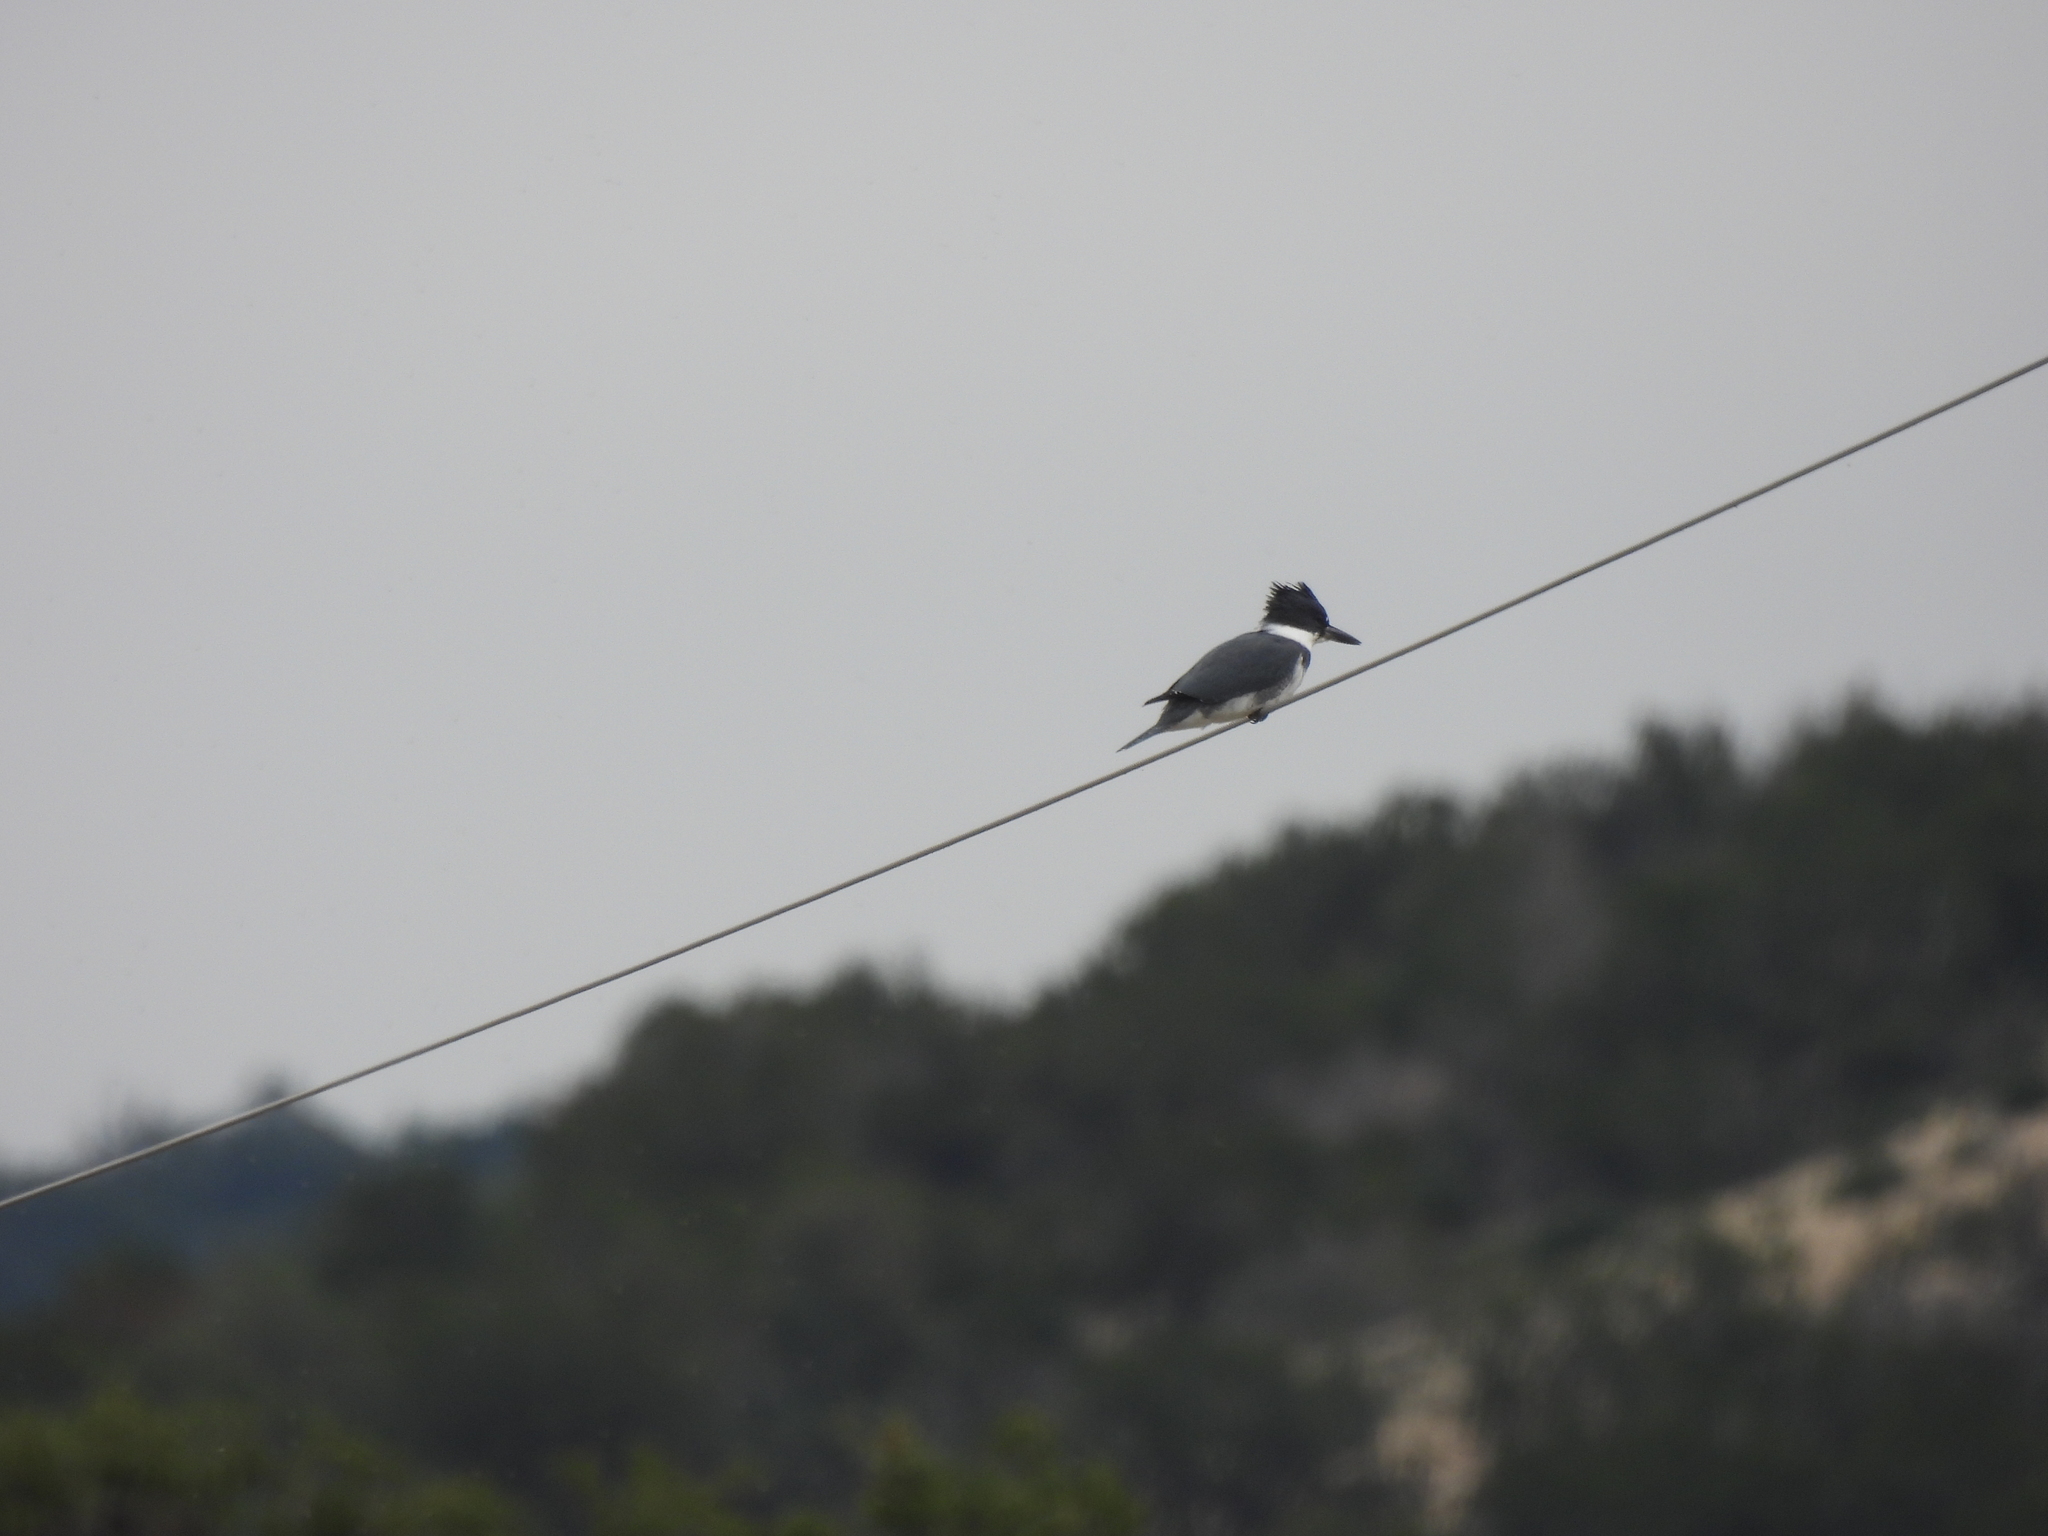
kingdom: Animalia
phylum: Chordata
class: Aves
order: Coraciiformes
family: Alcedinidae
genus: Megaceryle
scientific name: Megaceryle alcyon
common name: Belted kingfisher
